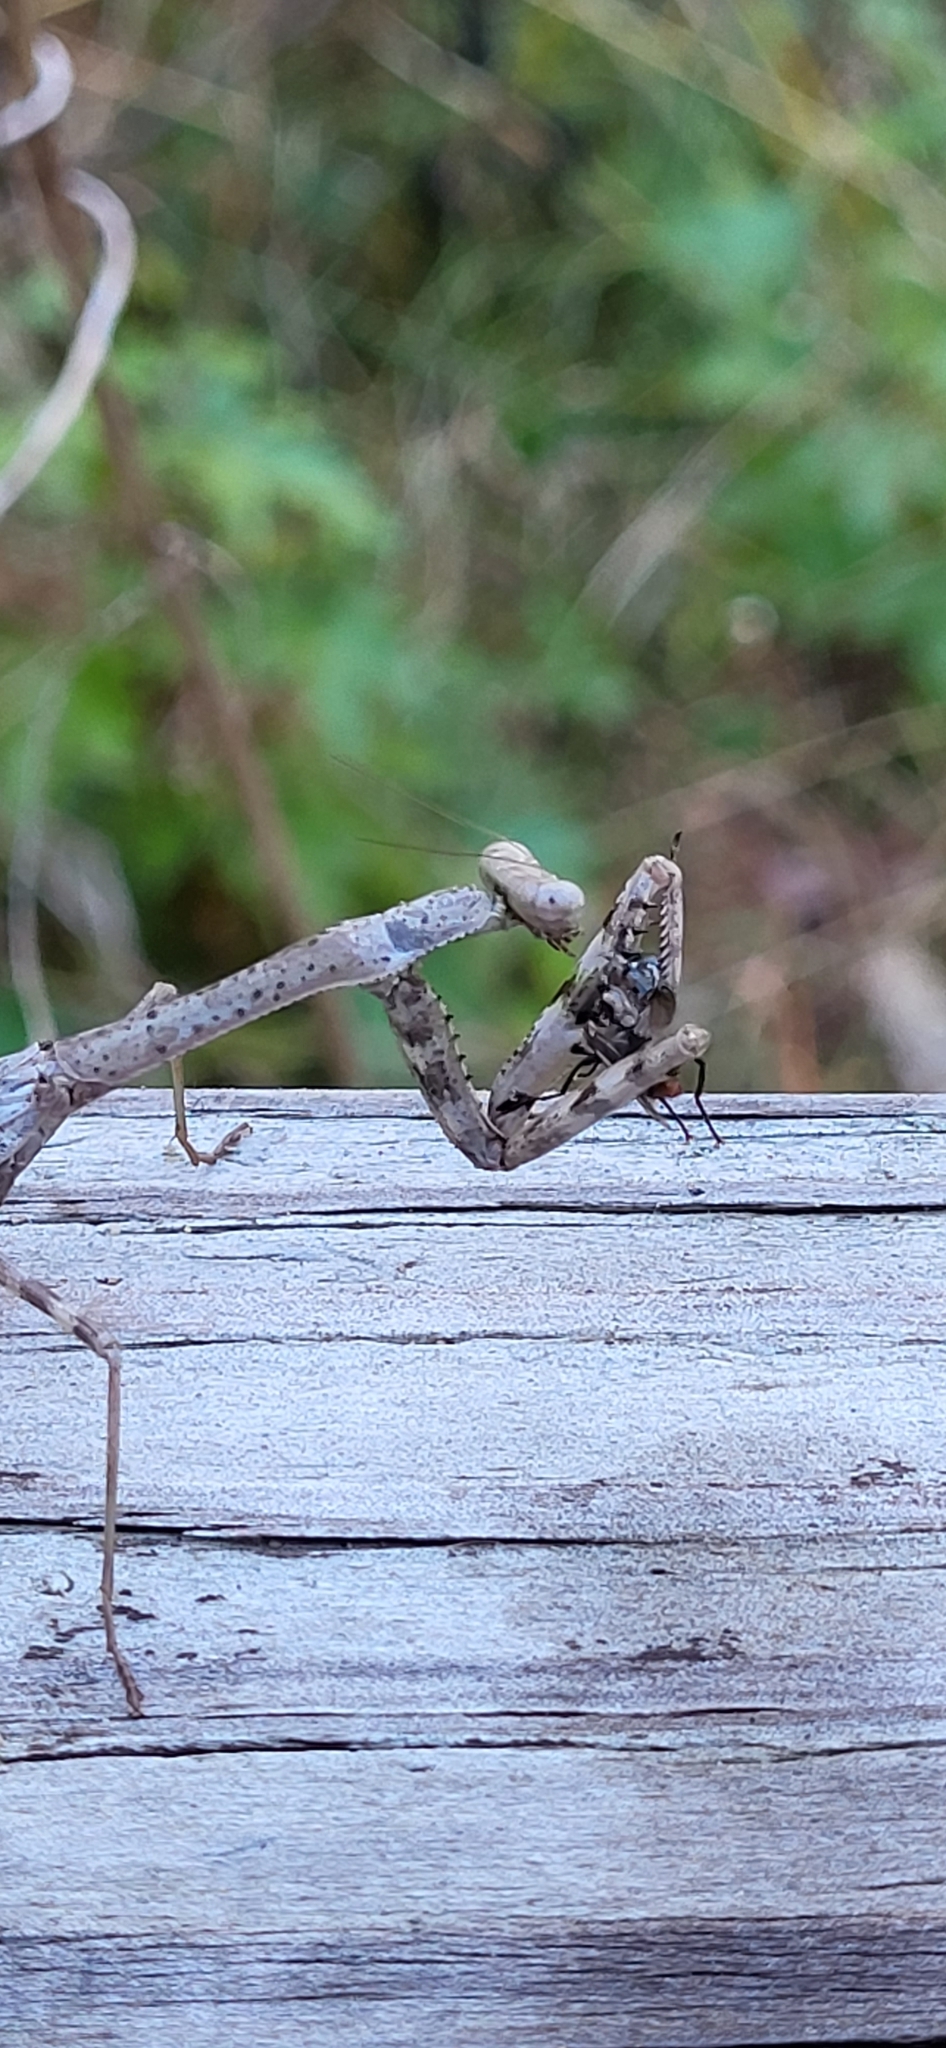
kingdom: Animalia
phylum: Arthropoda
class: Insecta
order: Mantodea
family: Mantidae
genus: Stagmomantis
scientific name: Stagmomantis carolina
